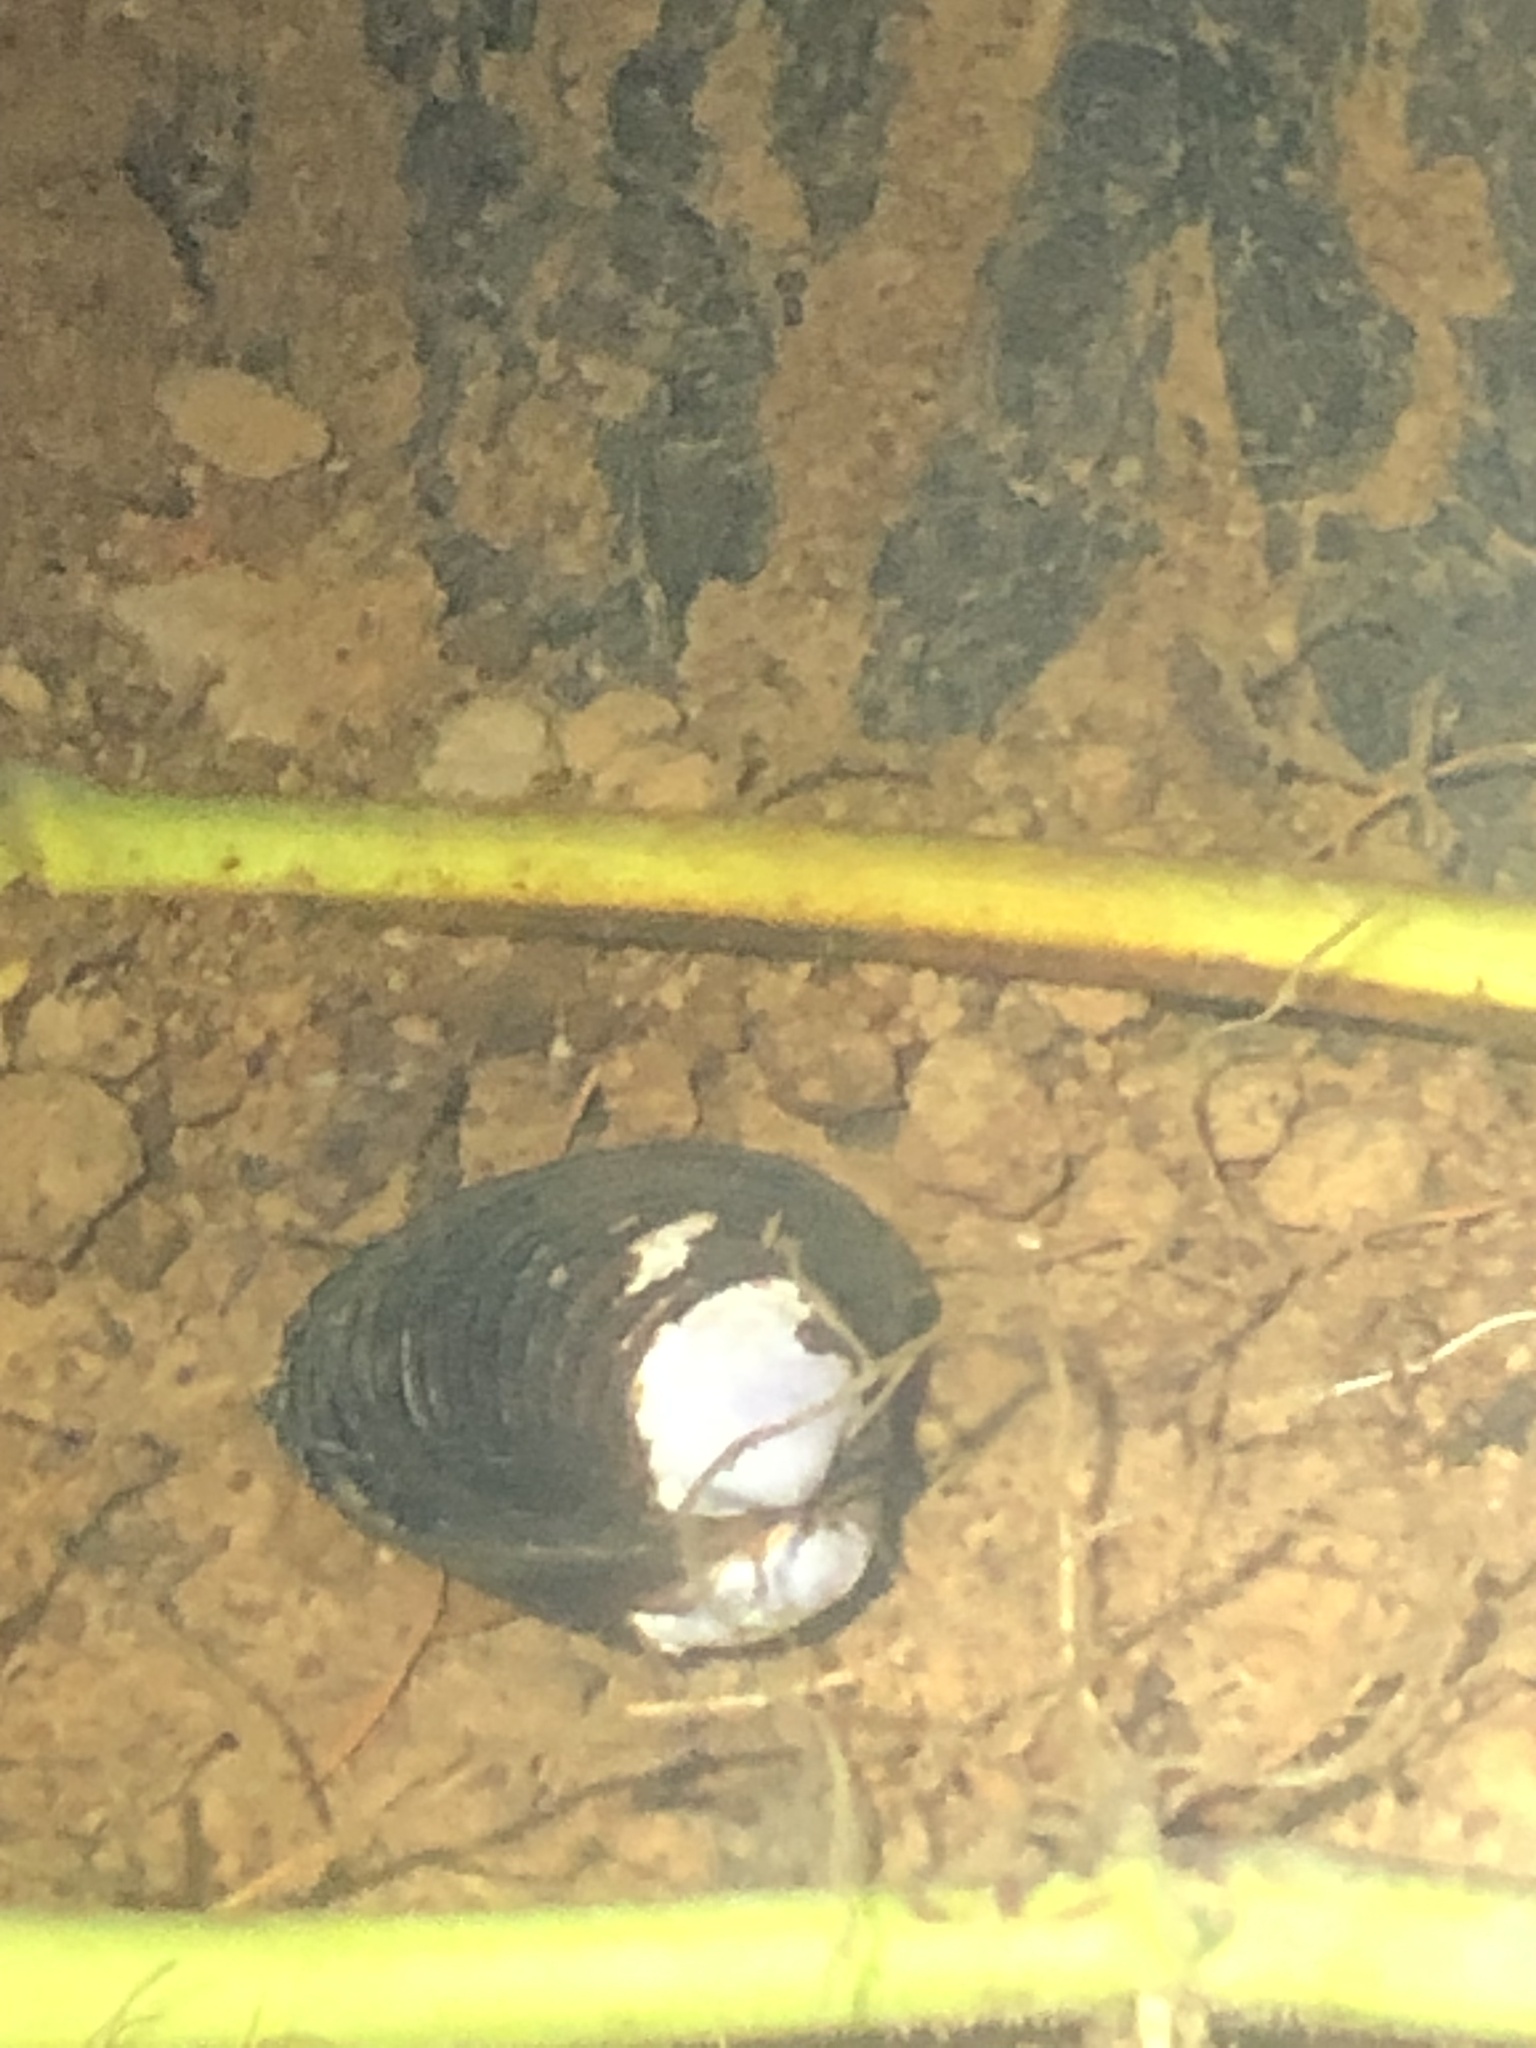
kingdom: Animalia
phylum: Mollusca
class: Bivalvia
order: Venerida
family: Cyrenidae
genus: Corbicula
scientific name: Corbicula fluminea
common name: Asian clam
